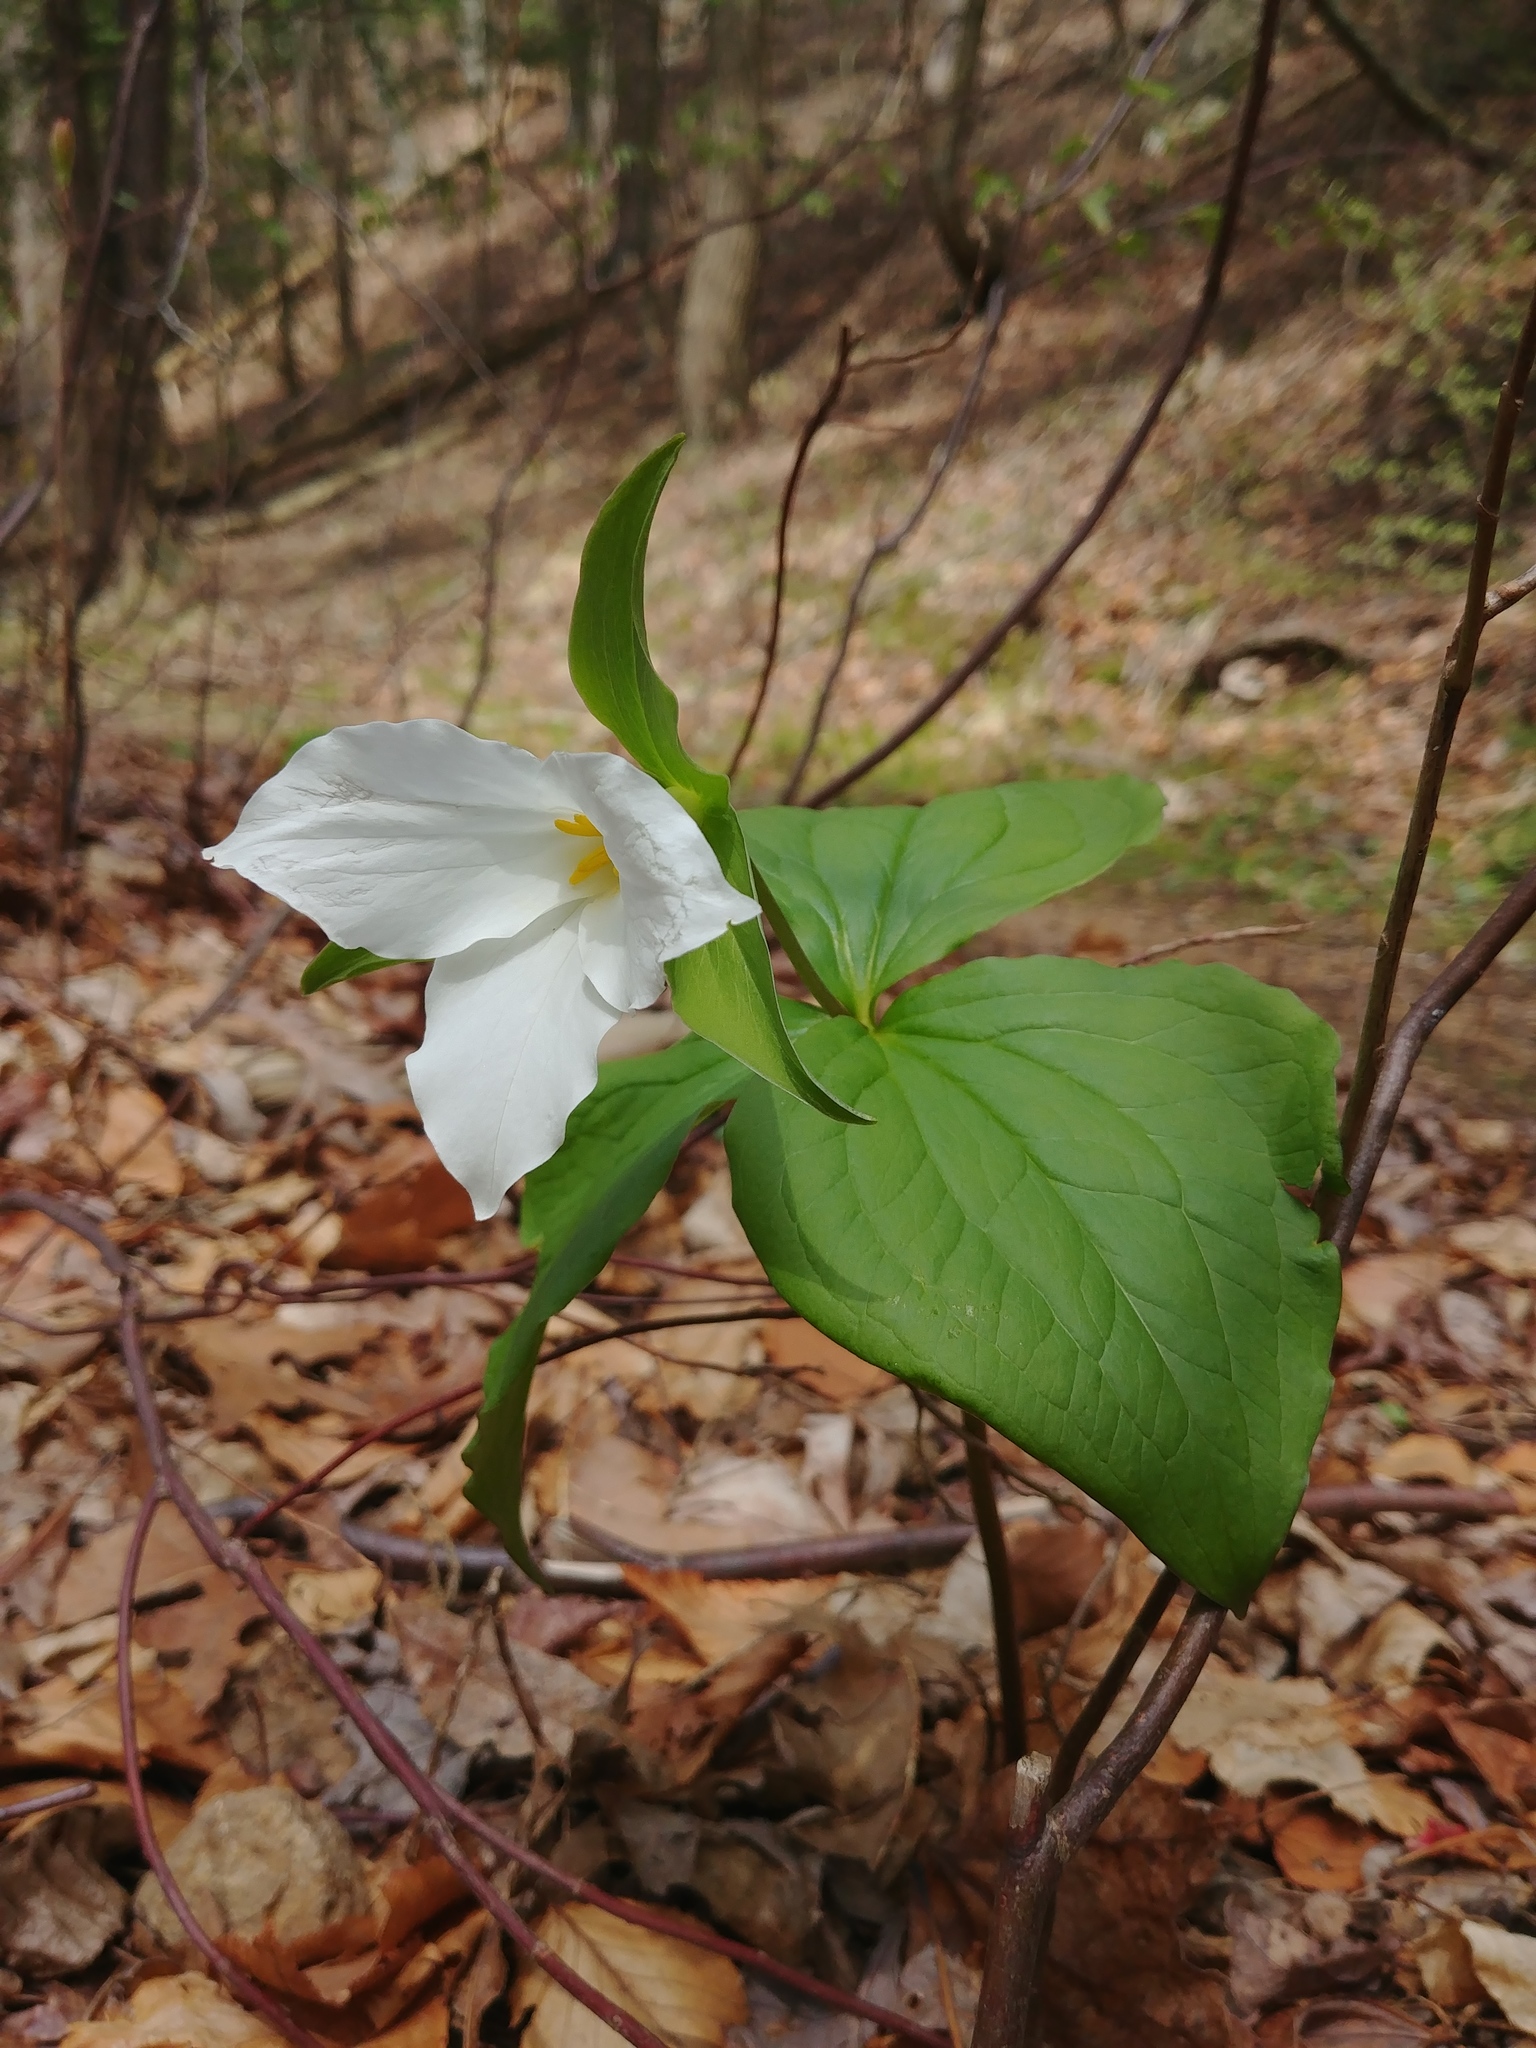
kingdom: Plantae
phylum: Tracheophyta
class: Liliopsida
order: Liliales
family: Melanthiaceae
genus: Trillium
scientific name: Trillium grandiflorum
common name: Great white trillium
